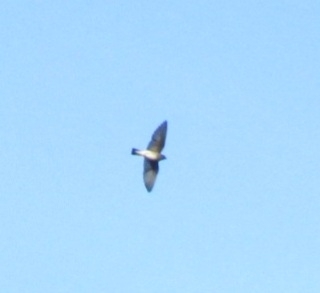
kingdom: Animalia
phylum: Chordata
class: Aves
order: Passeriformes
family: Hirundinidae
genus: Stelgidopteryx
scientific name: Stelgidopteryx serripennis
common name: Northern rough-winged swallow
